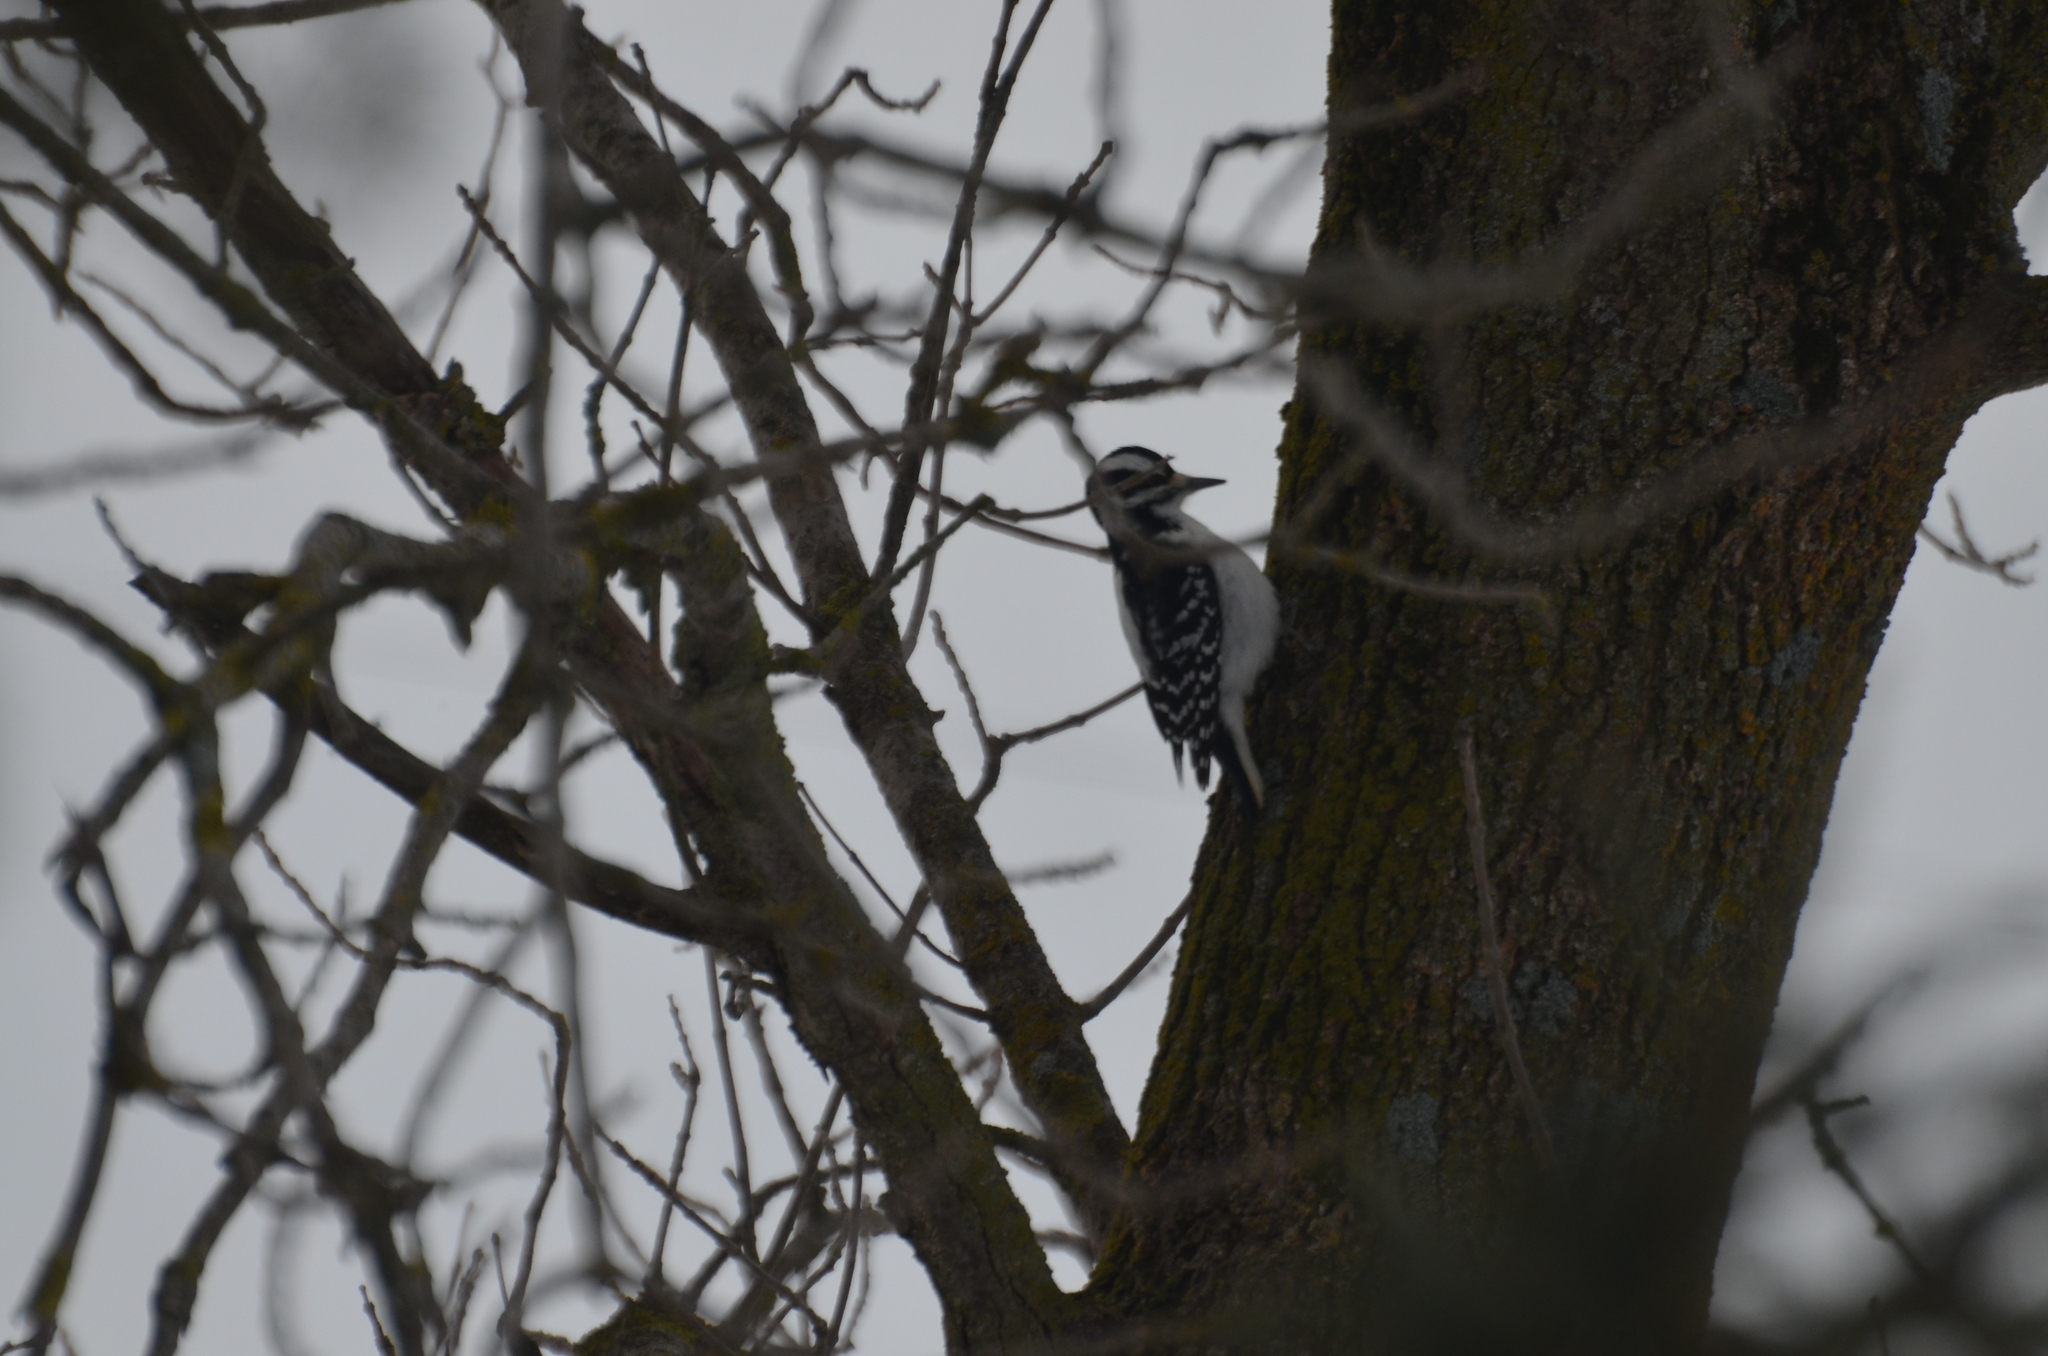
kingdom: Animalia
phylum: Chordata
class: Aves
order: Piciformes
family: Picidae
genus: Leuconotopicus
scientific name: Leuconotopicus villosus
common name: Hairy woodpecker
